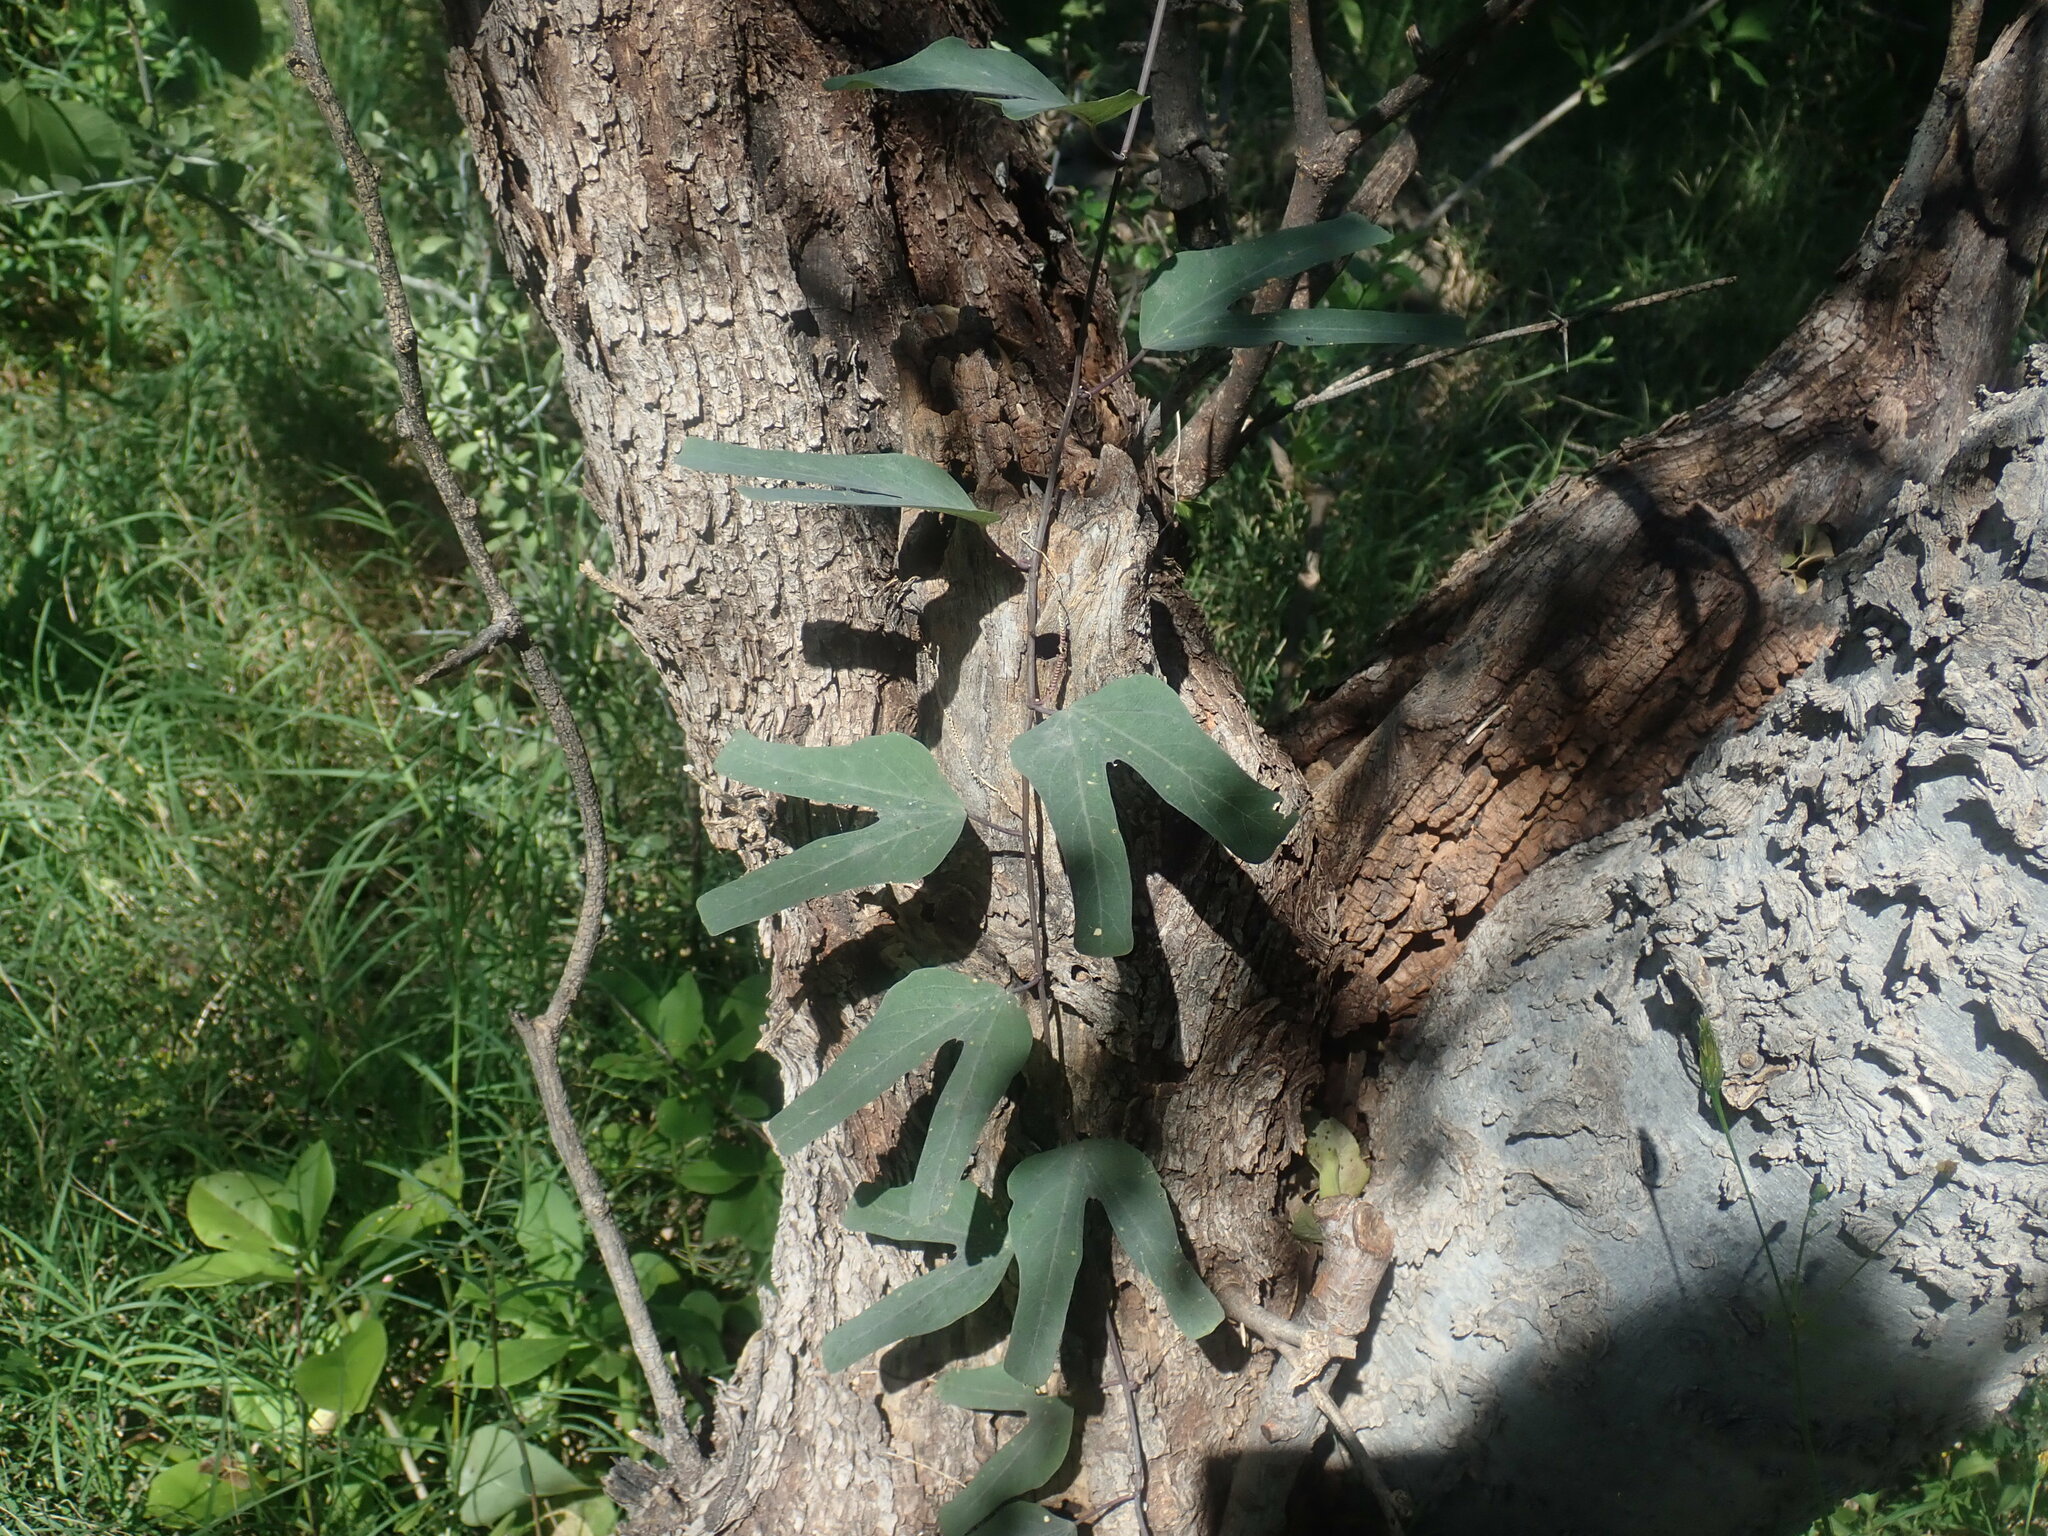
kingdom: Plantae
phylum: Tracheophyta
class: Magnoliopsida
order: Malpighiales
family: Passifloraceae
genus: Passiflora
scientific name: Passiflora mexicana
